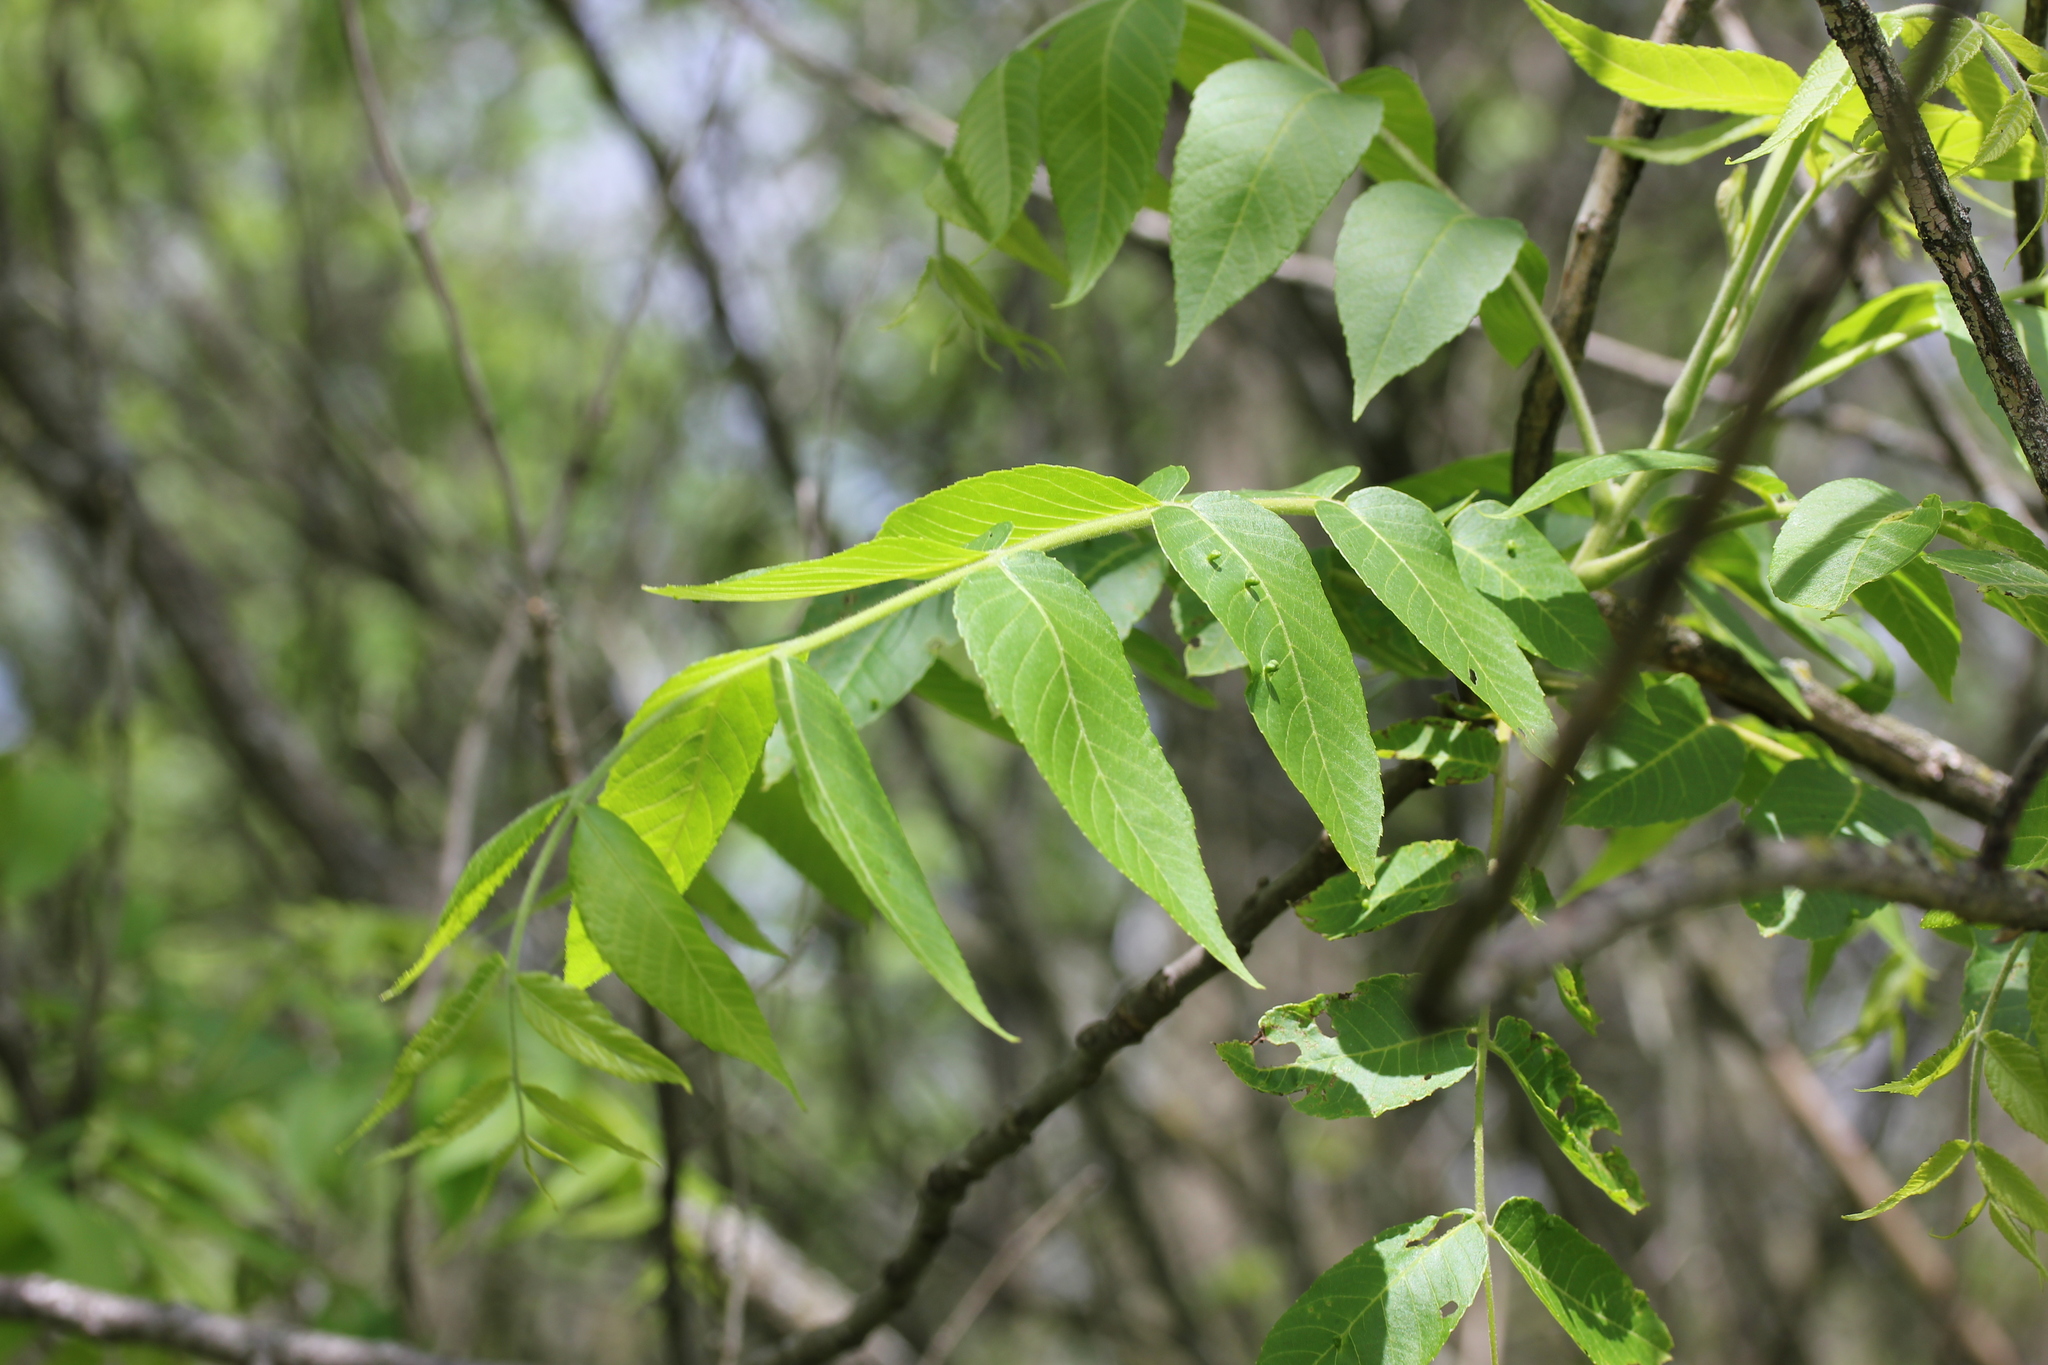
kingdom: Plantae
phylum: Tracheophyta
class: Magnoliopsida
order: Fagales
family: Juglandaceae
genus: Juglans
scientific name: Juglans nigra
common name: Black walnut
